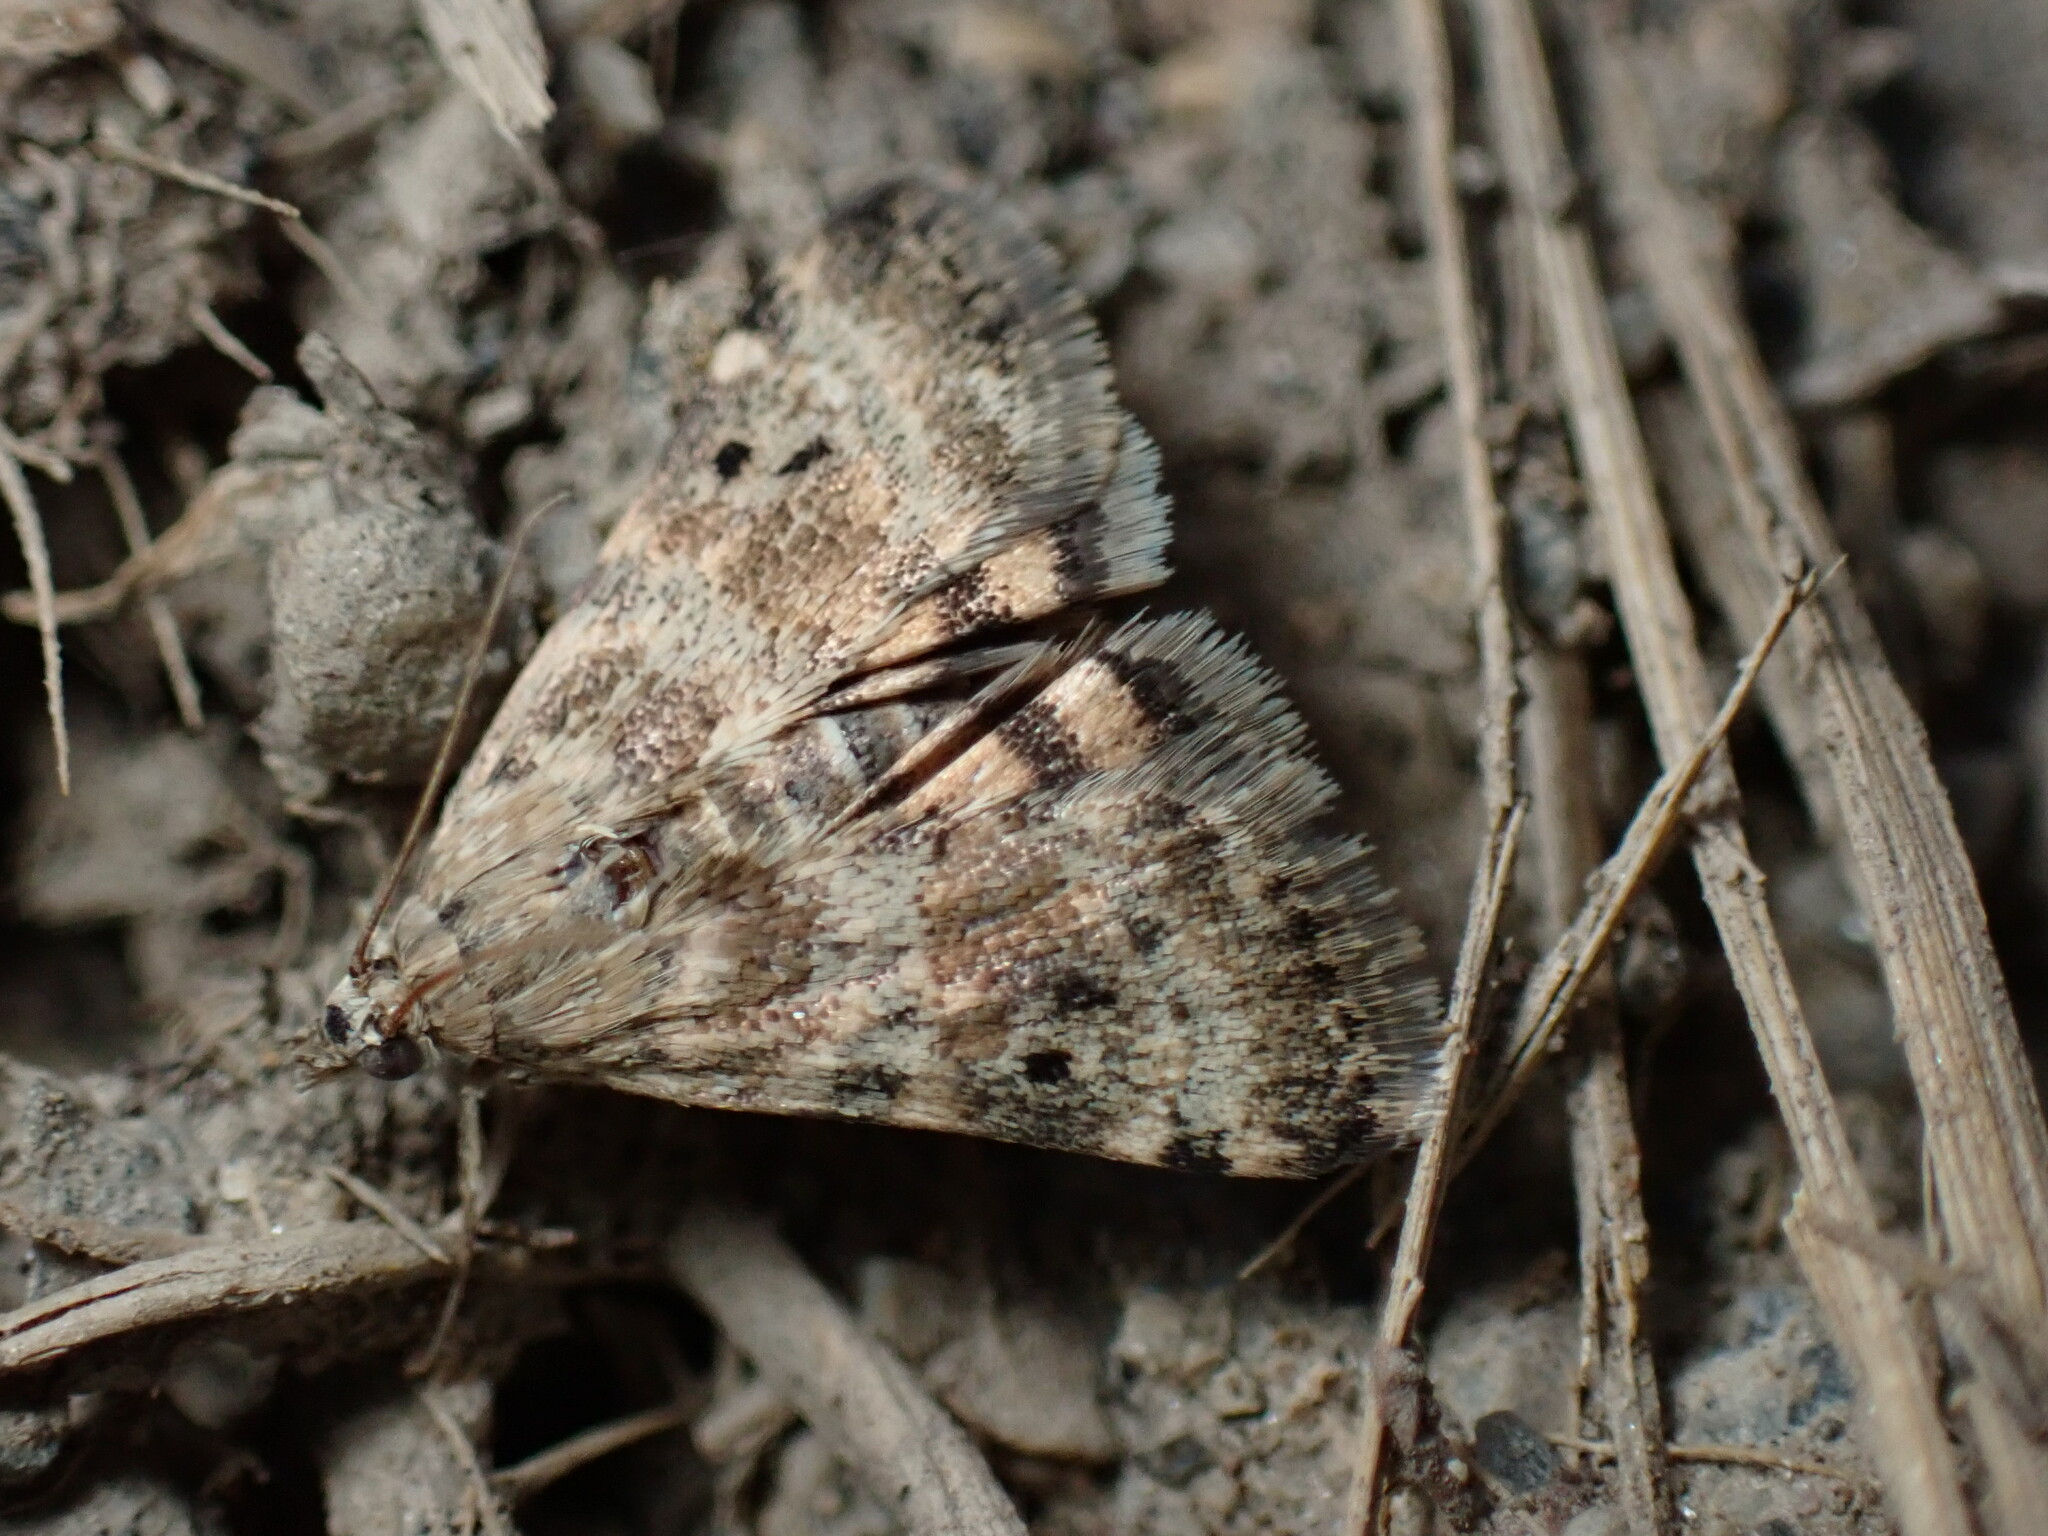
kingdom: Animalia
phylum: Arthropoda
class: Insecta
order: Lepidoptera
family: Crambidae
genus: Noctuelia
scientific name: Noctuelia Aporodes floralis
